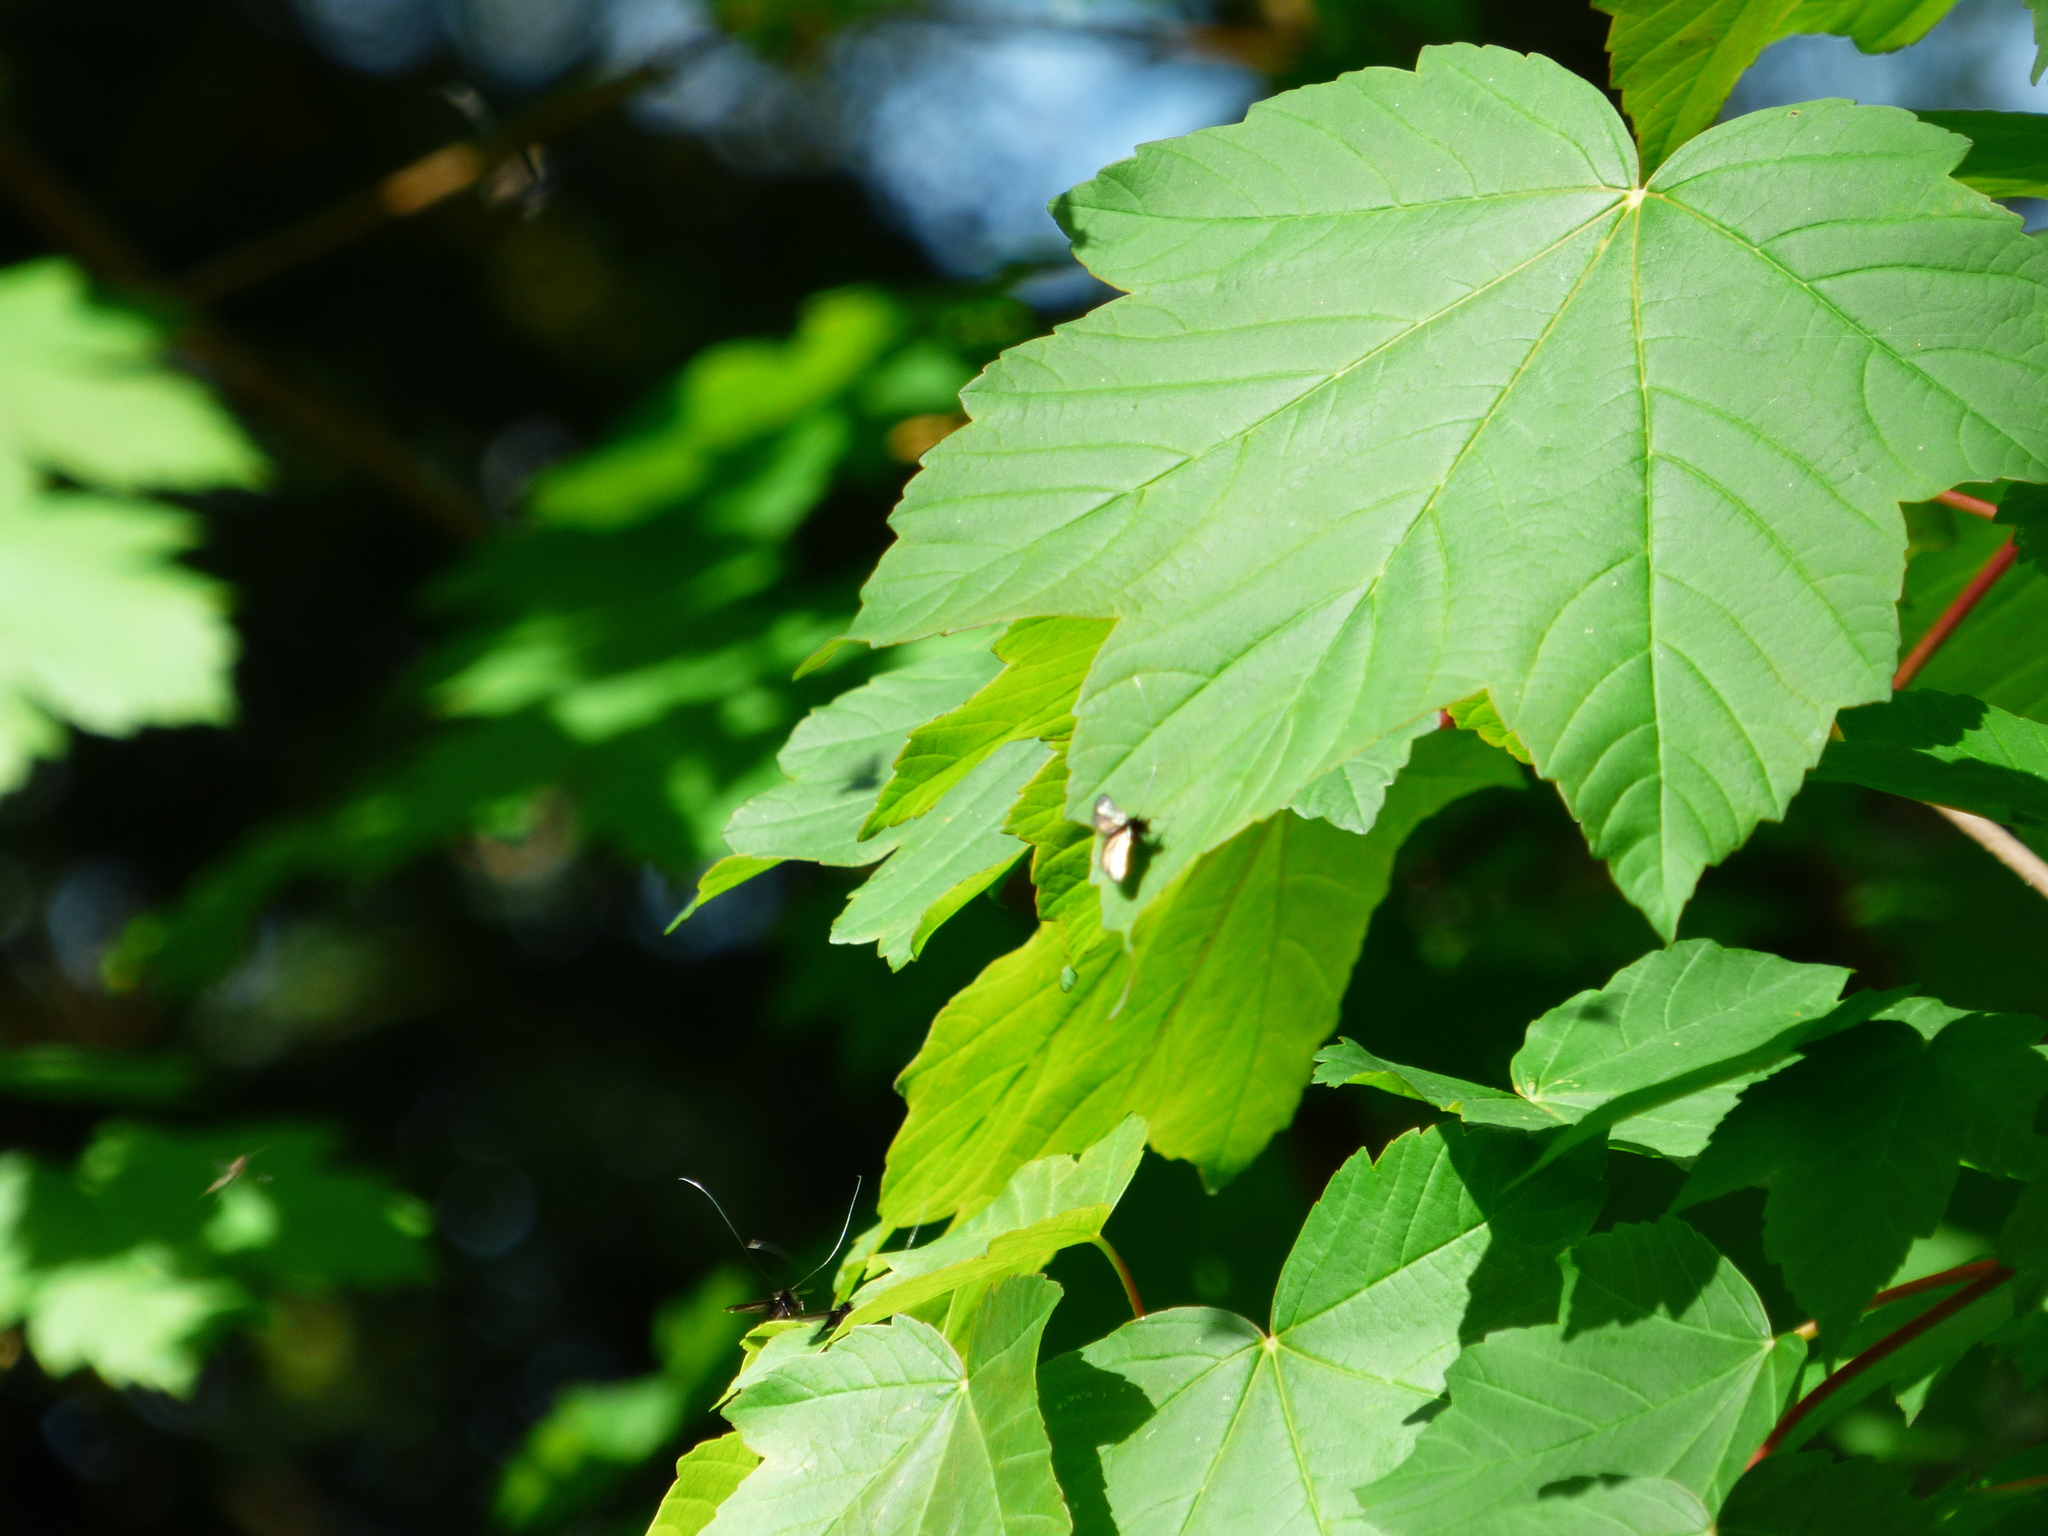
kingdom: Animalia
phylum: Arthropoda
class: Insecta
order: Lepidoptera
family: Adelidae
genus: Adela
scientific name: Adela viridella
